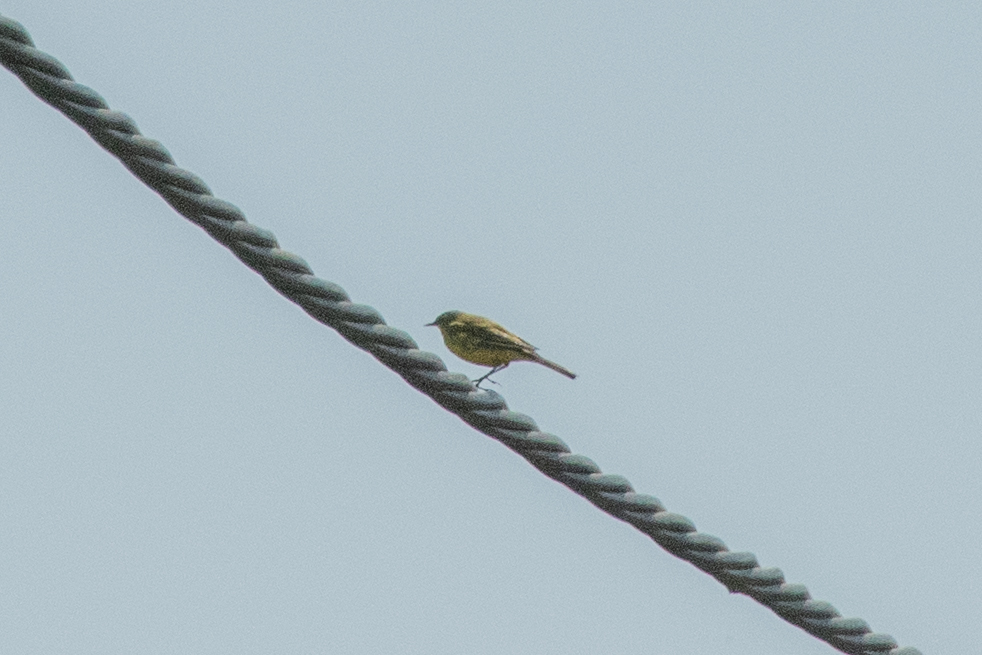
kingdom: Animalia
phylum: Chordata
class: Aves
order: Passeriformes
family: Motacillidae
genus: Motacilla
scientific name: Motacilla flava
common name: Western yellow wagtail
